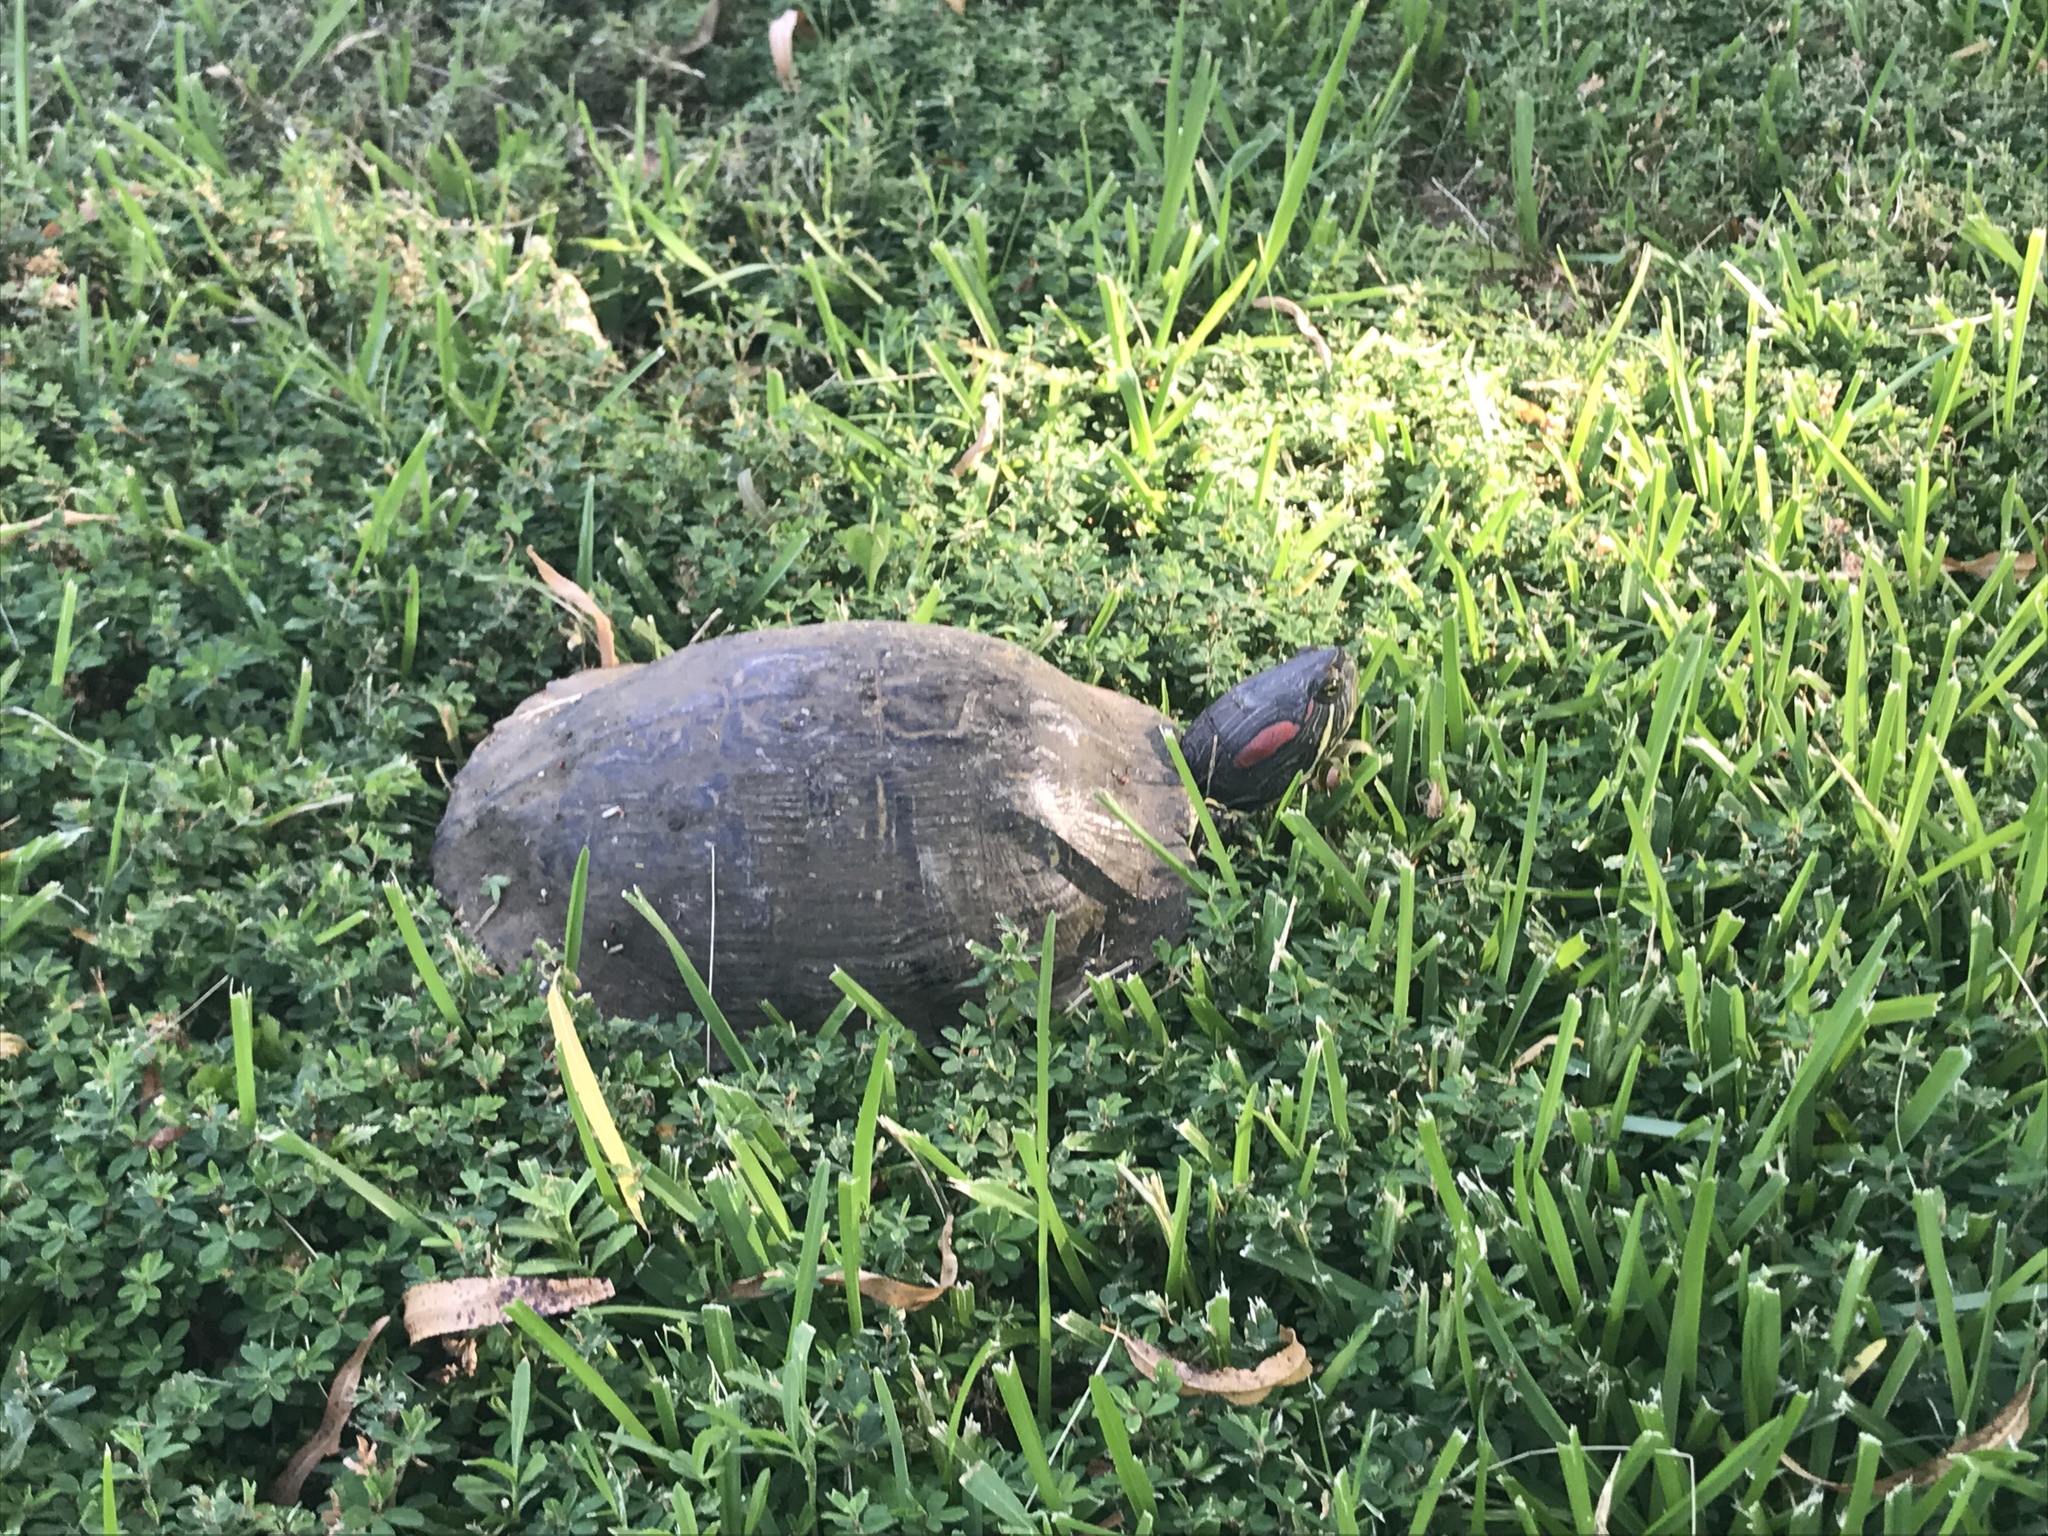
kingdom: Animalia
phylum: Chordata
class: Testudines
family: Emydidae
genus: Trachemys
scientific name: Trachemys scripta
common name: Slider
